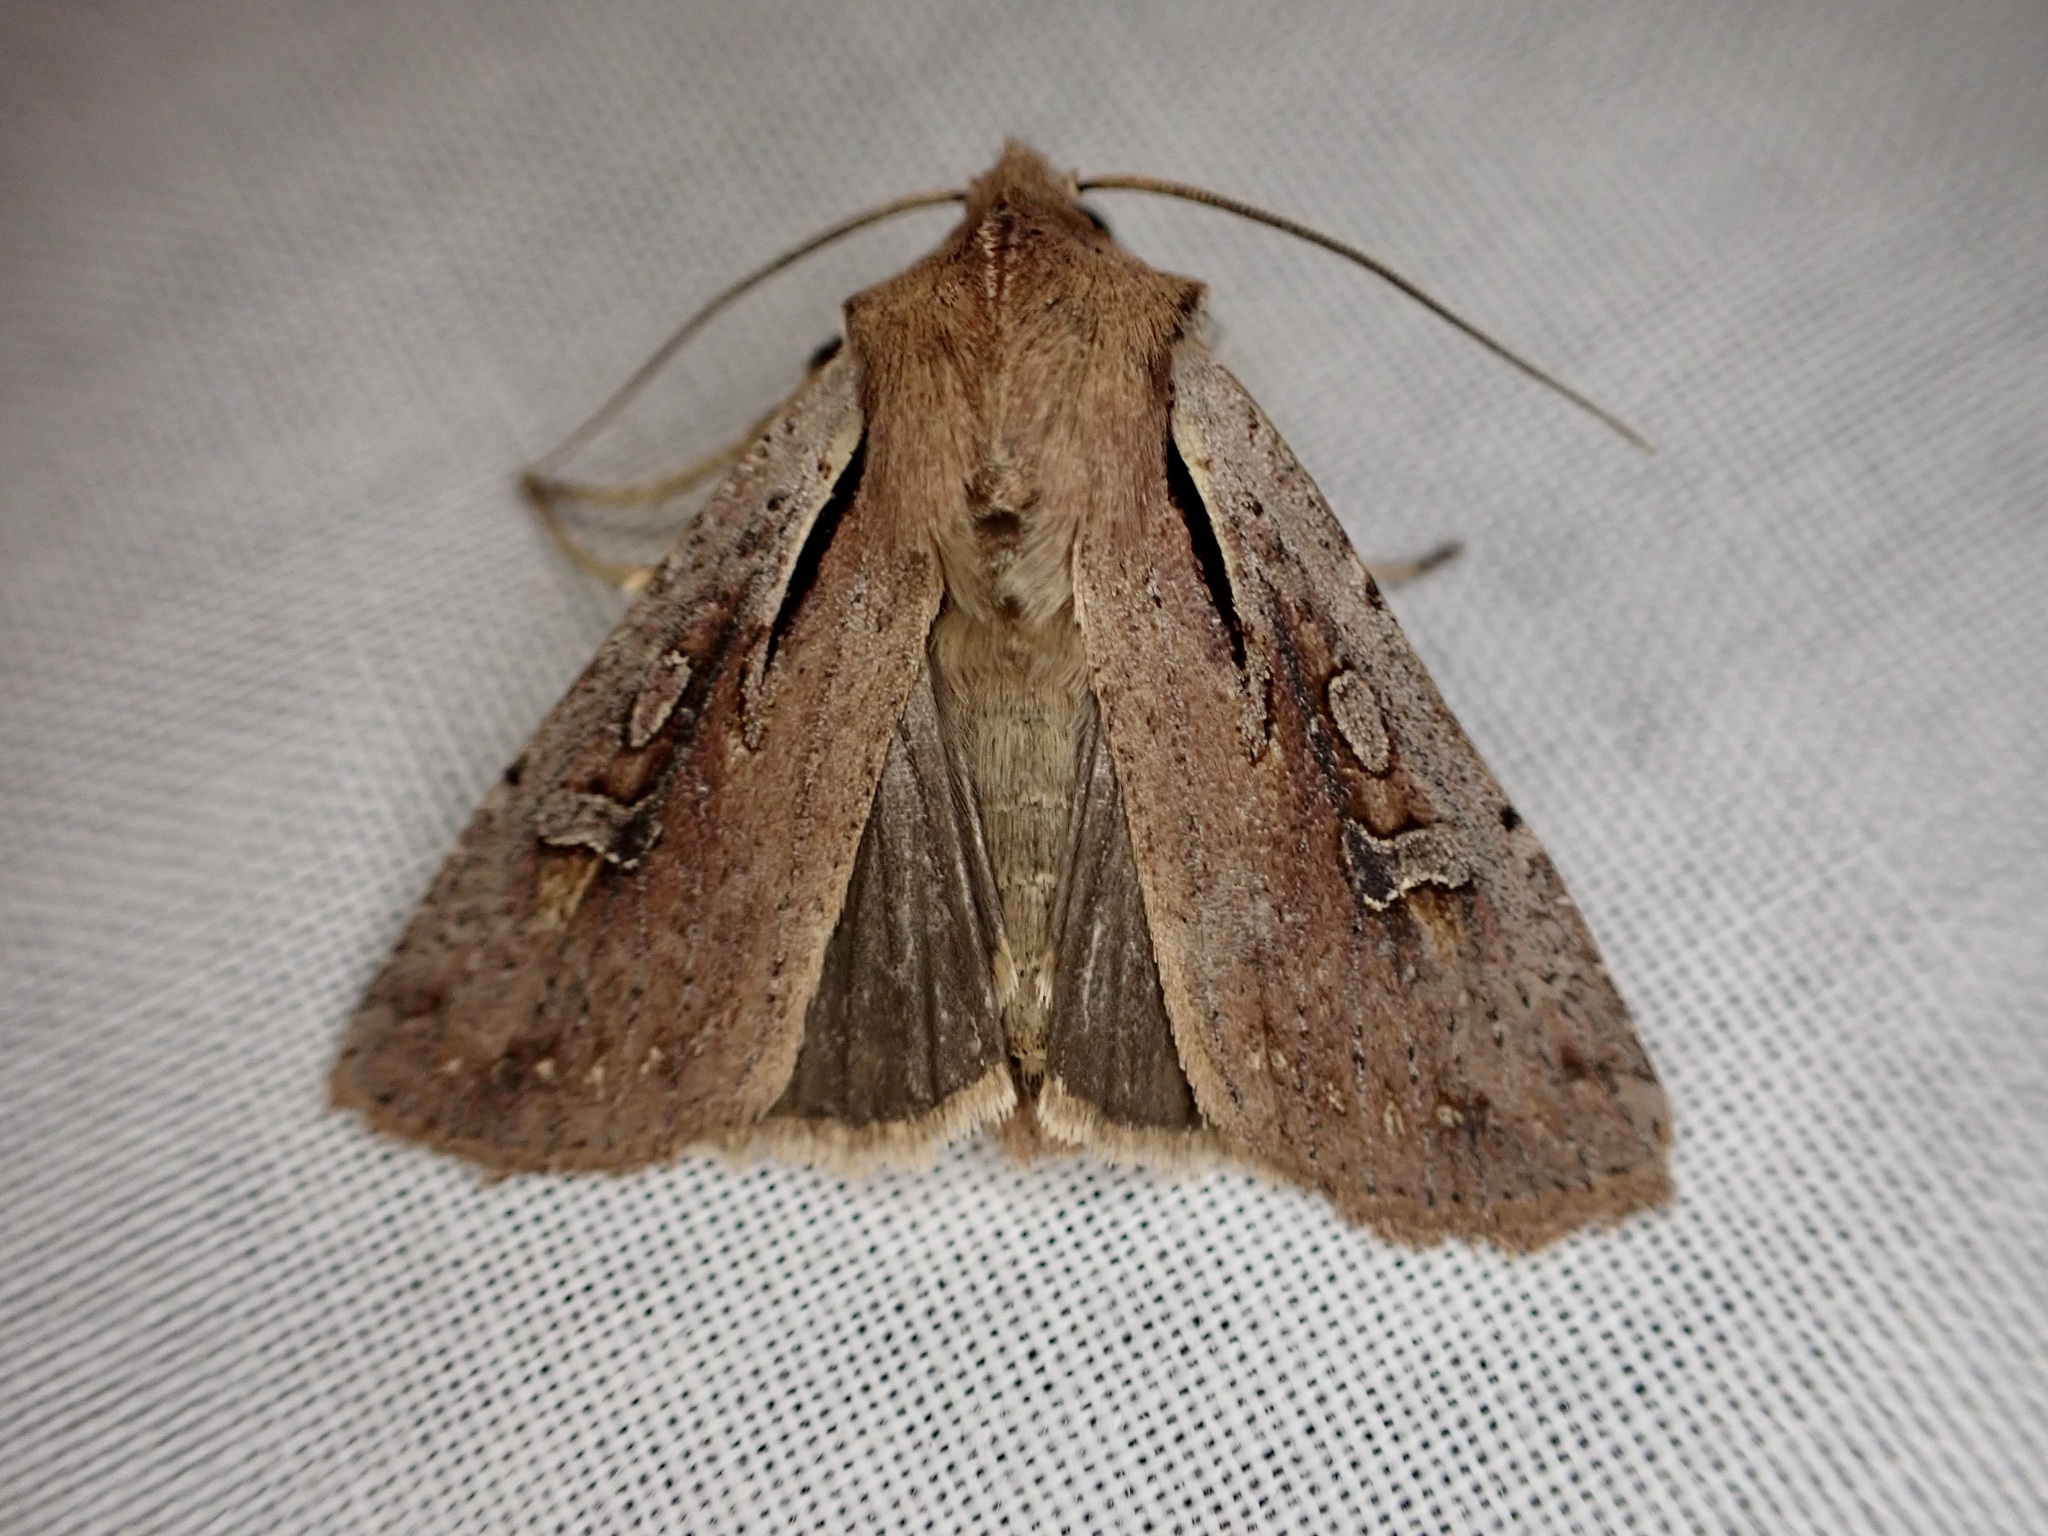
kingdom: Animalia
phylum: Arthropoda
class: Insecta
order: Lepidoptera
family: Noctuidae
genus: Ichneutica
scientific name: Ichneutica atristriga
